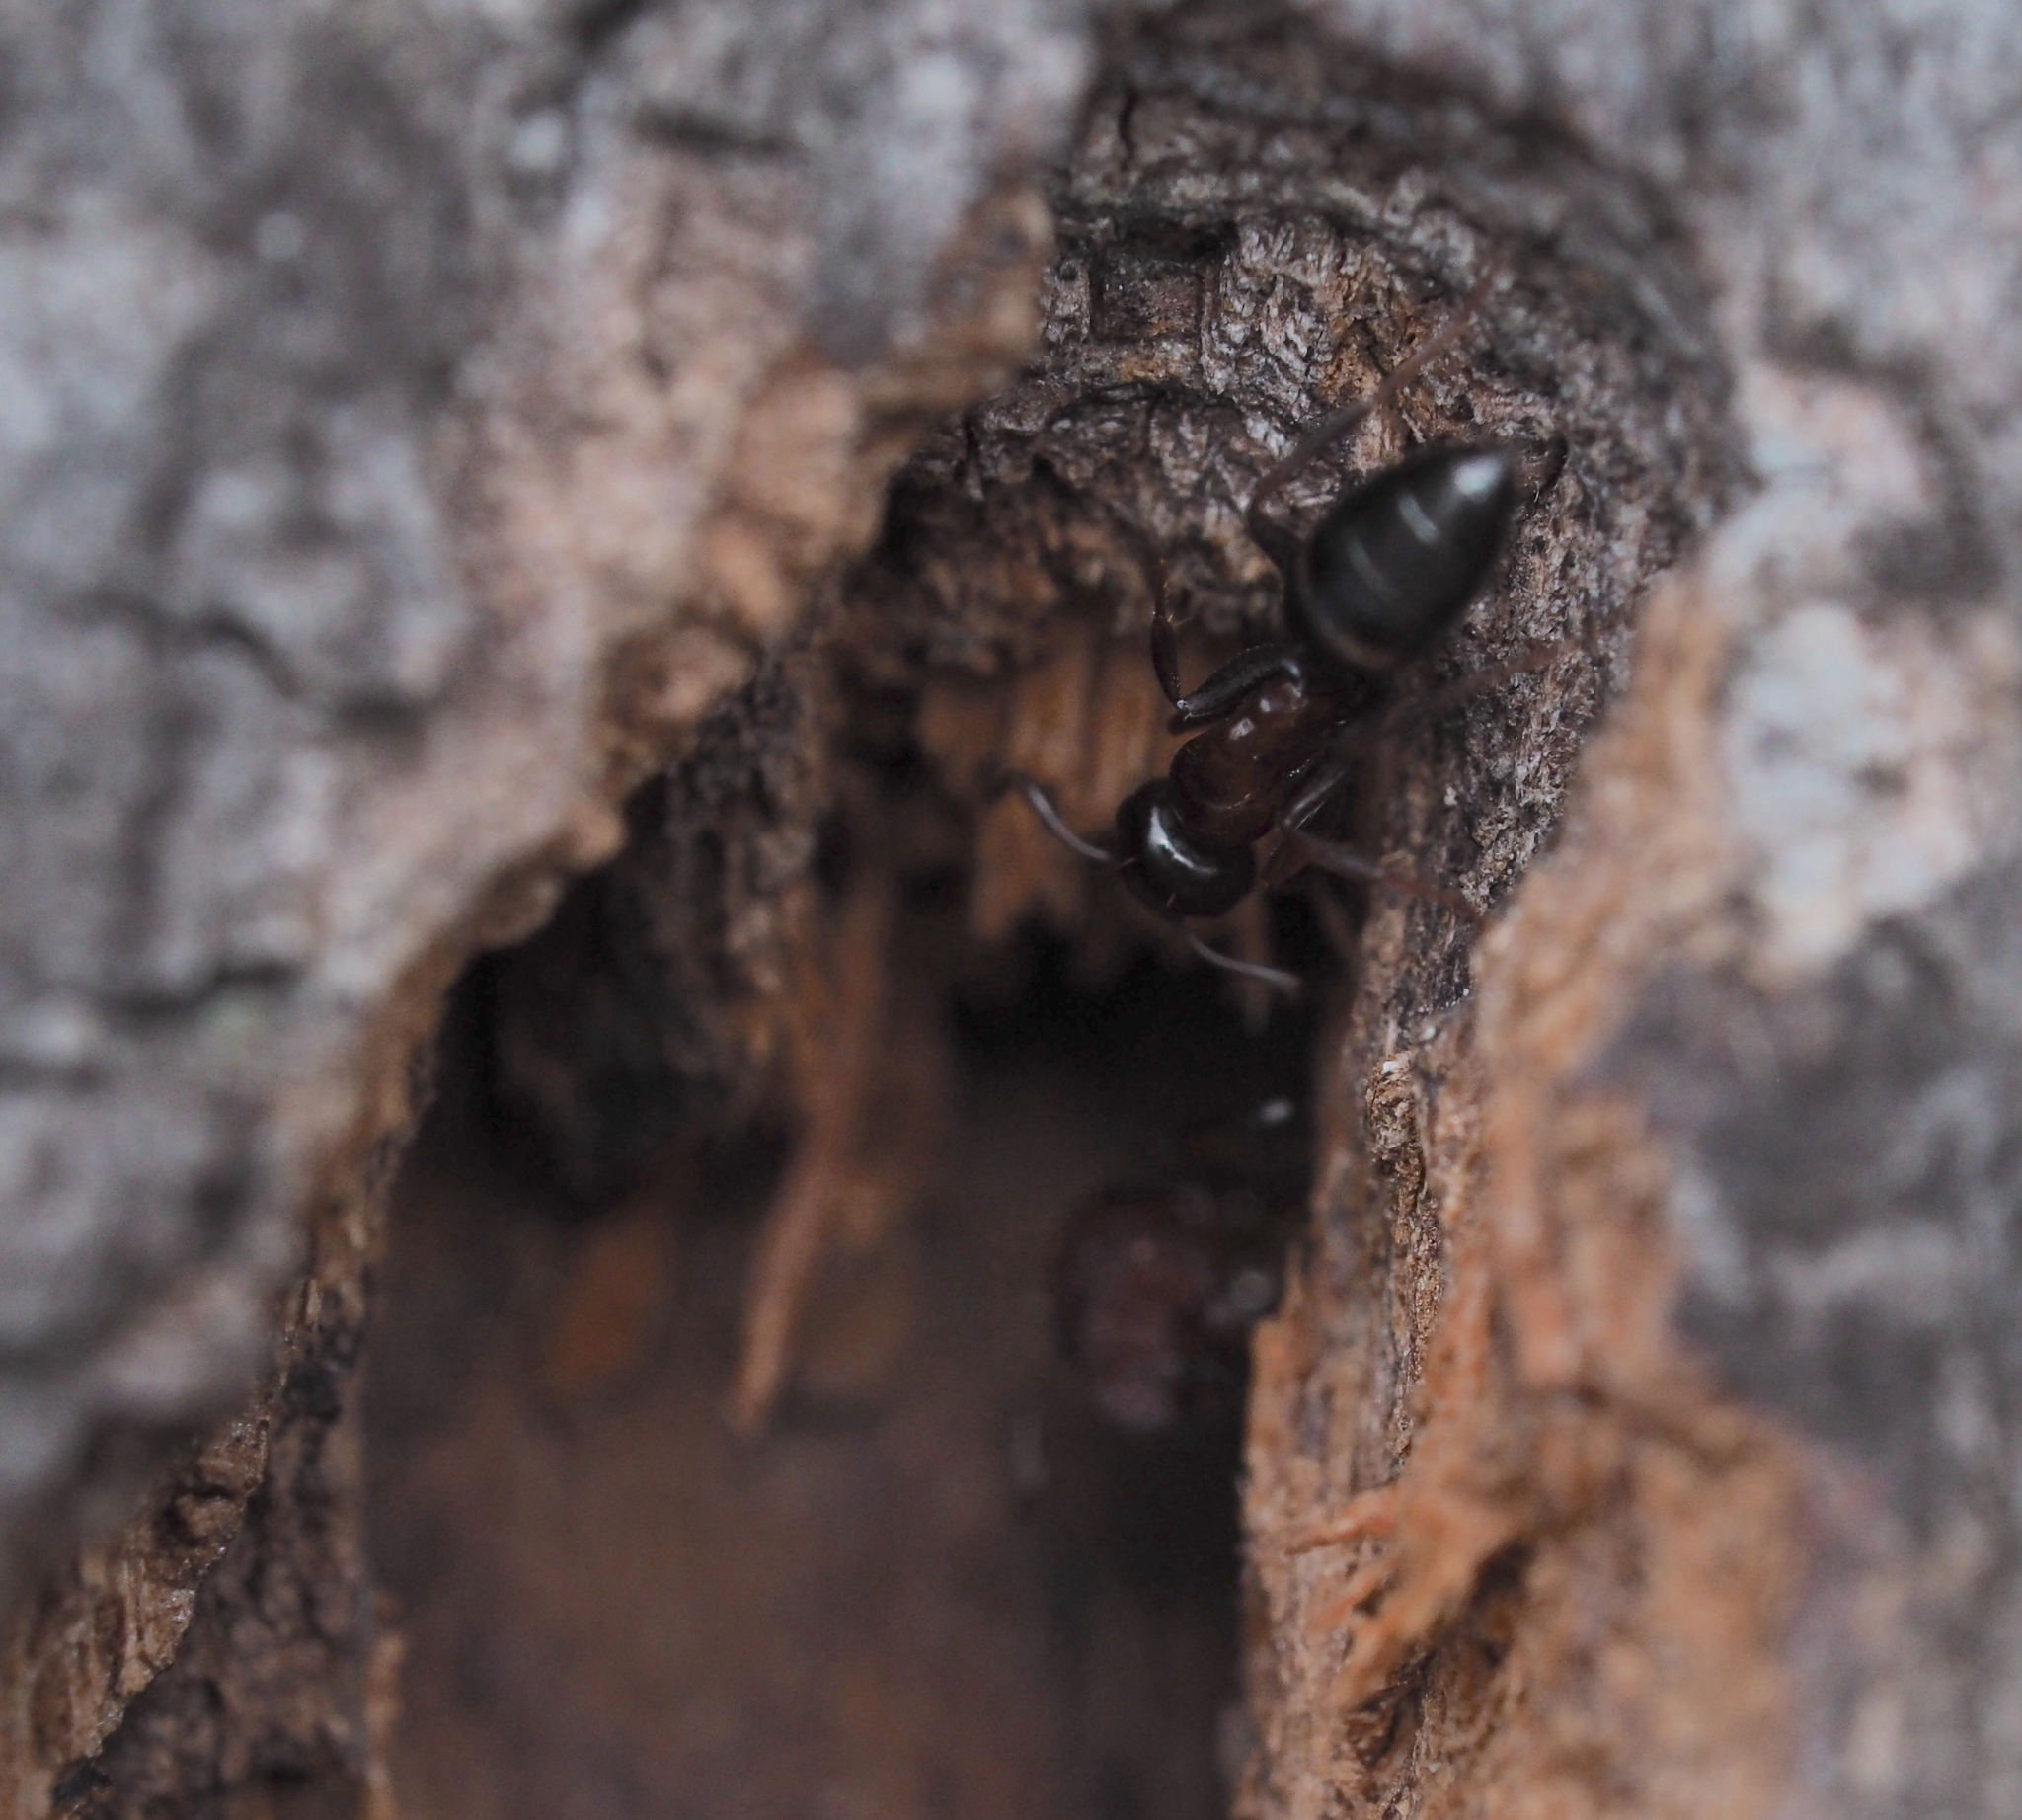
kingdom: Animalia
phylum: Arthropoda
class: Insecta
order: Hymenoptera
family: Formicidae
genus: Camponotus
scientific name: Camponotus fallax
